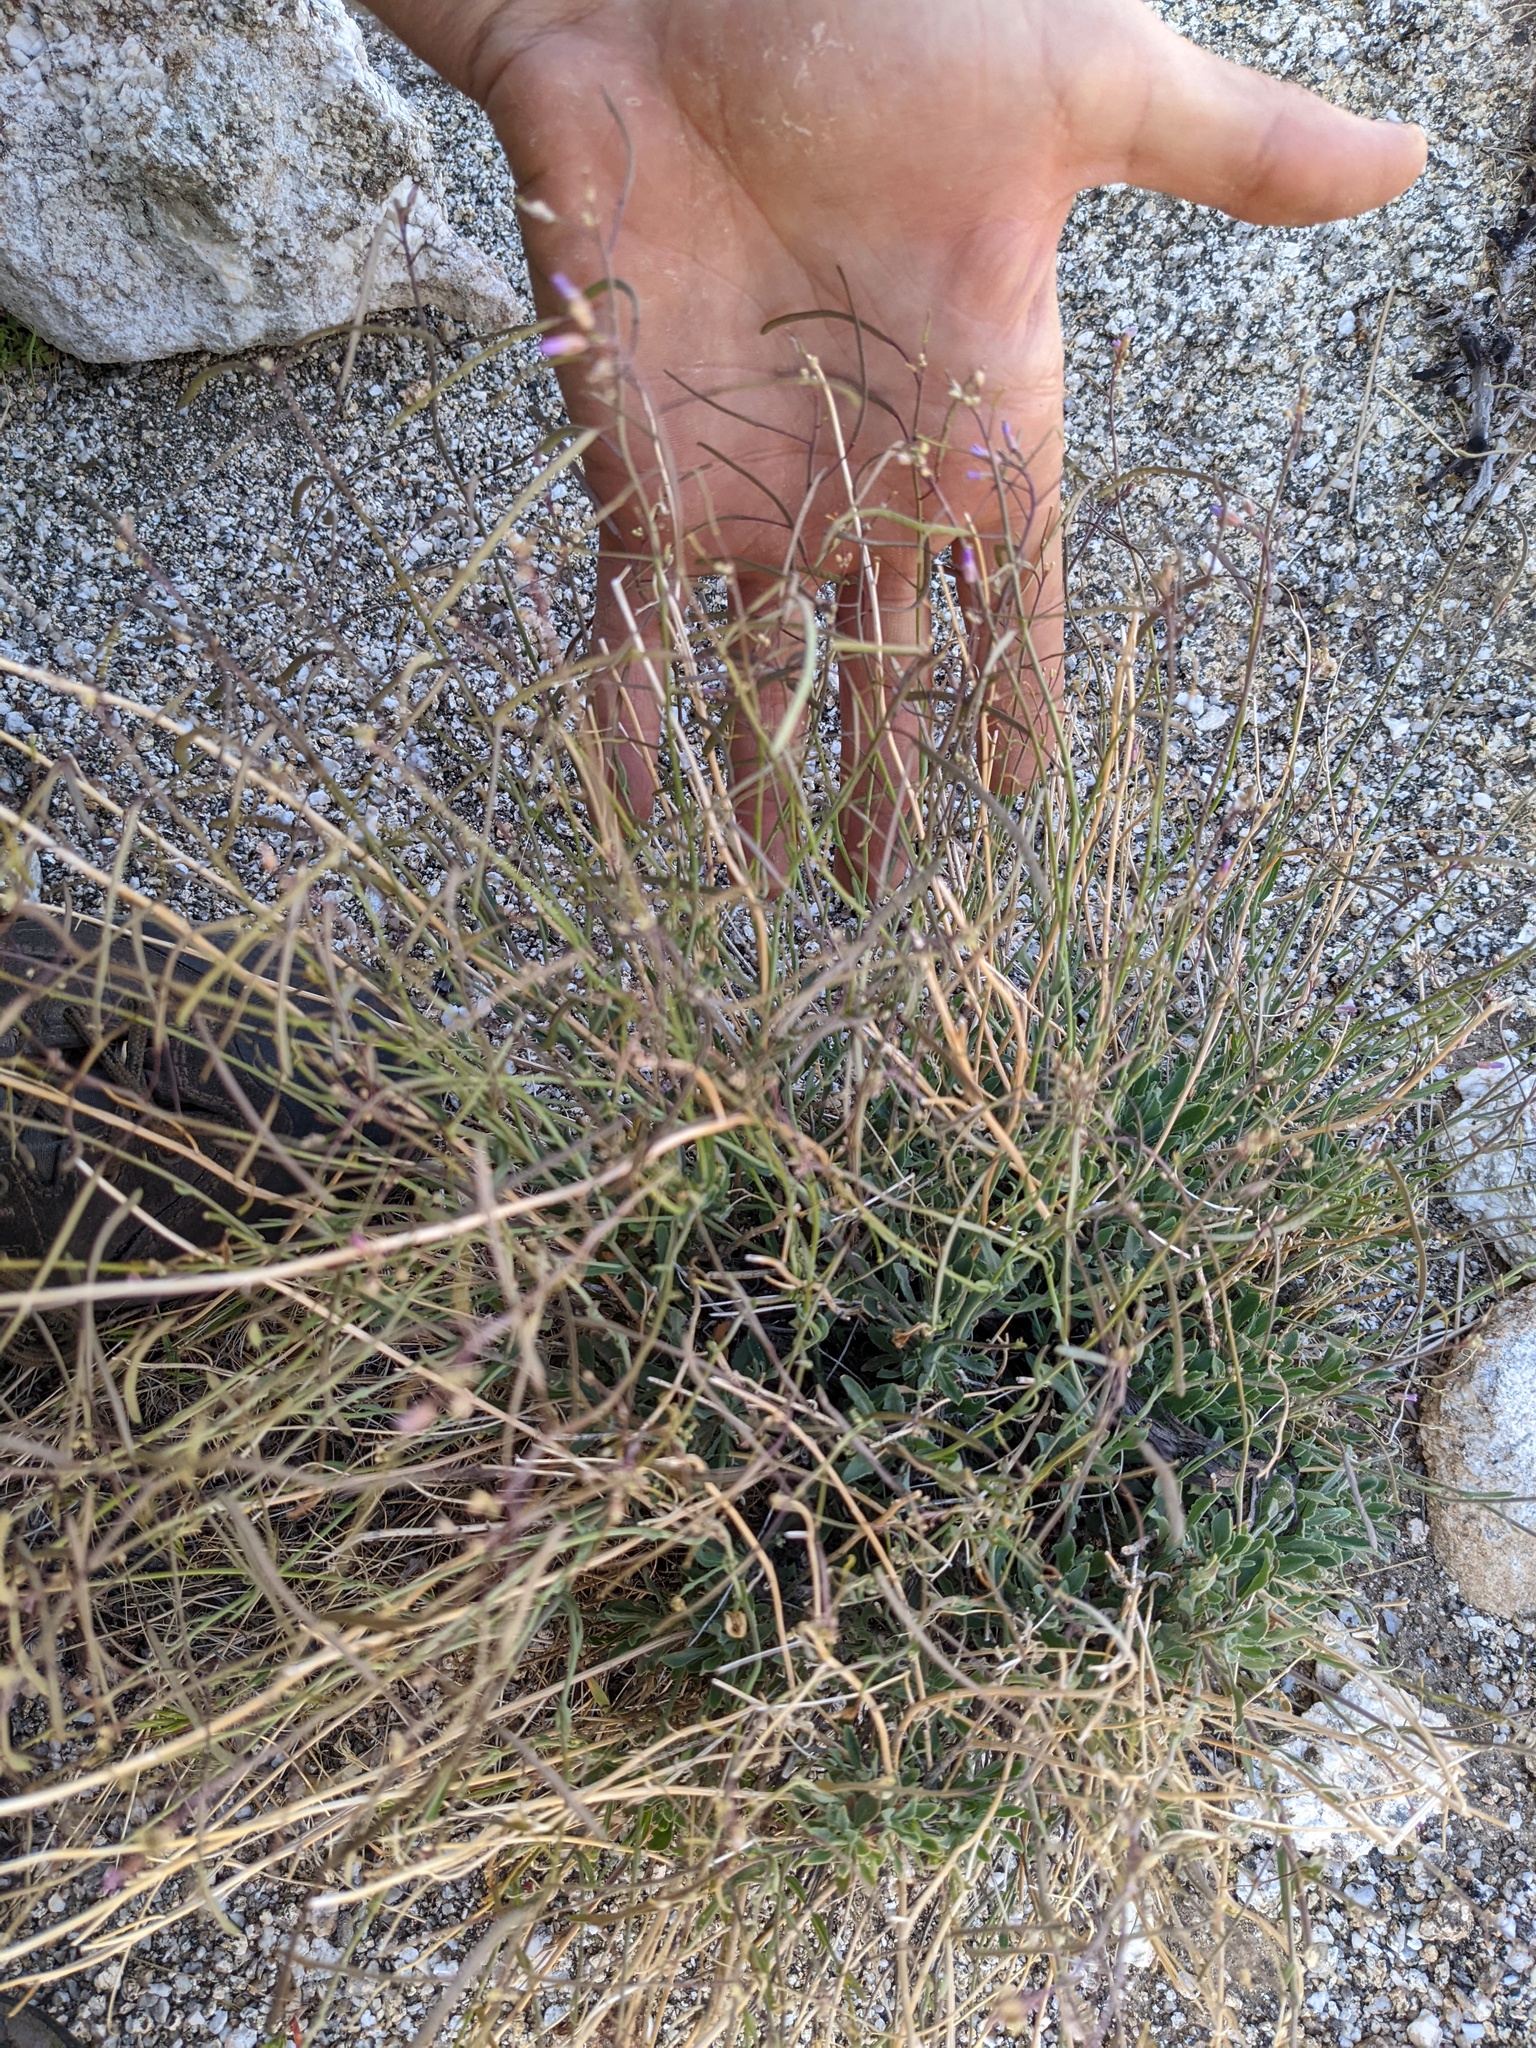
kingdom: Plantae
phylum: Tracheophyta
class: Magnoliopsida
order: Brassicales
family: Brassicaceae
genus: Boechera
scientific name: Boechera perennans
